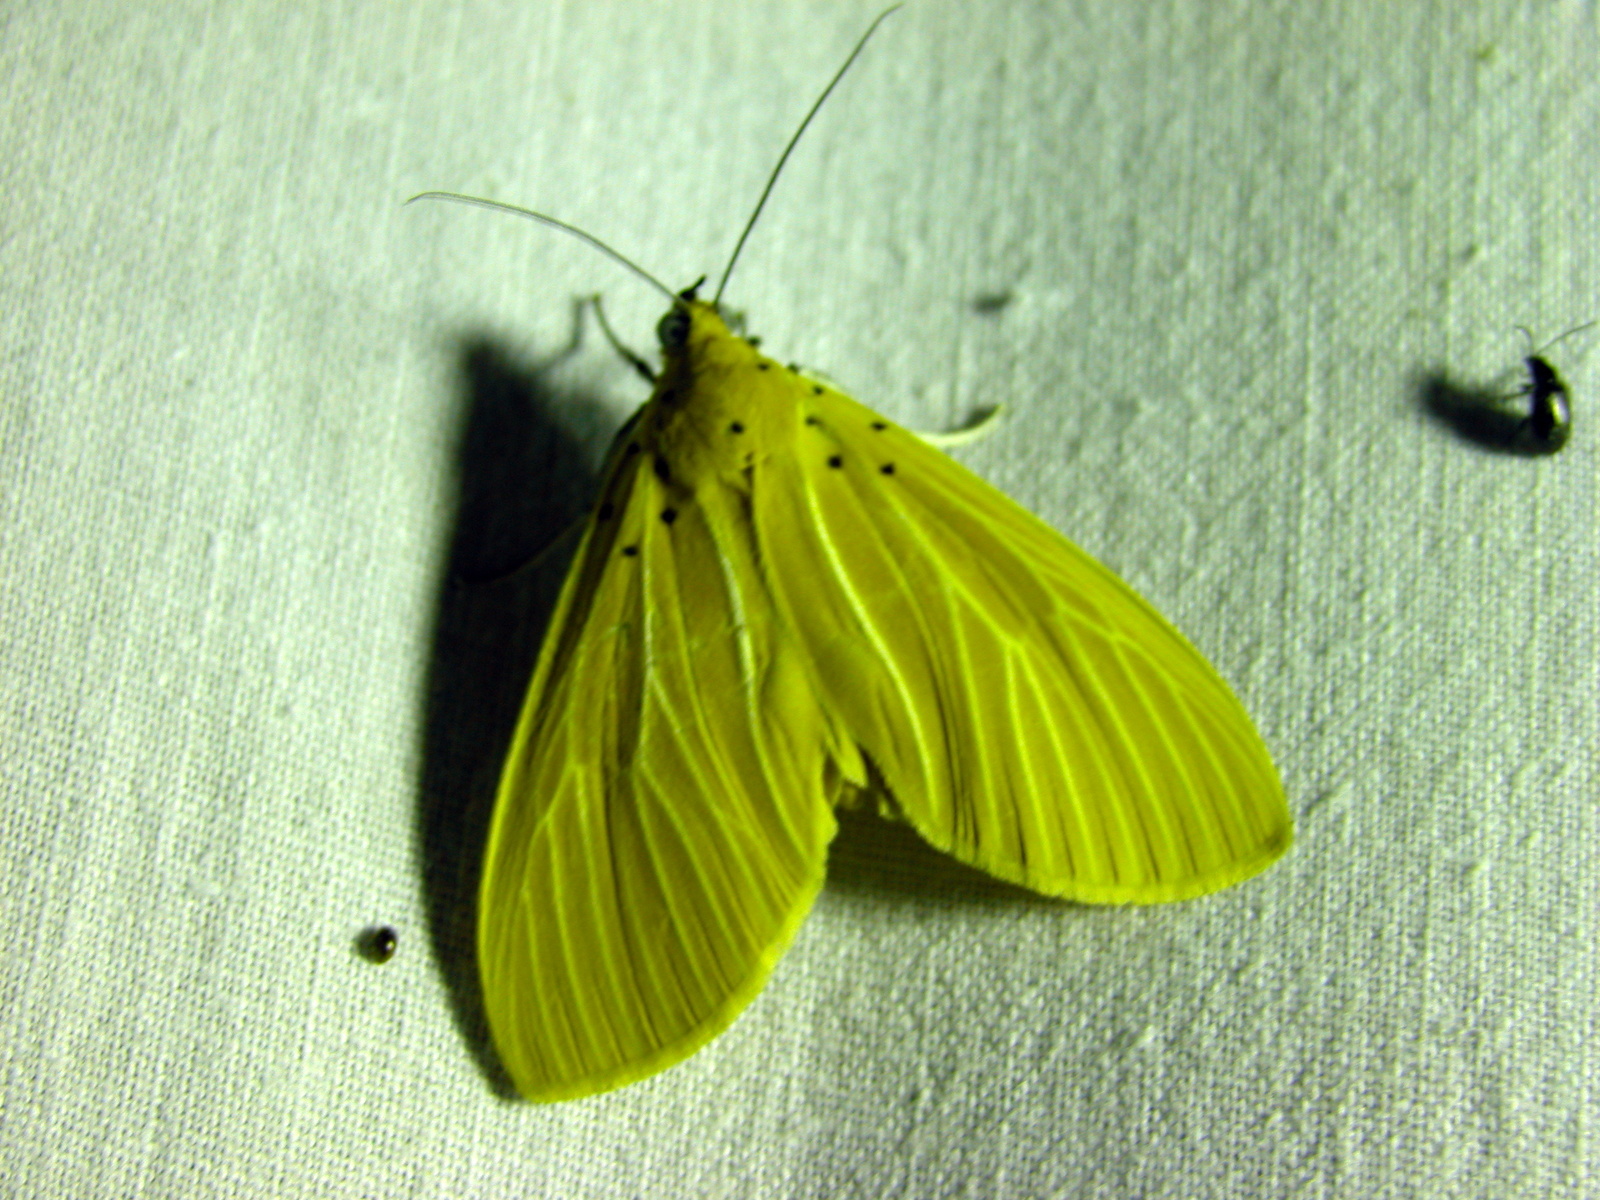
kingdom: Animalia
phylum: Arthropoda
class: Insecta
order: Lepidoptera
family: Erebidae
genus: Asota
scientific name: Asota egens
